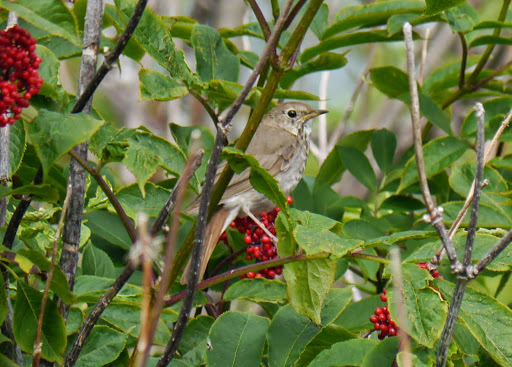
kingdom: Animalia
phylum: Chordata
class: Aves
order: Passeriformes
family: Turdidae
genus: Catharus
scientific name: Catharus guttatus
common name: Hermit thrush
